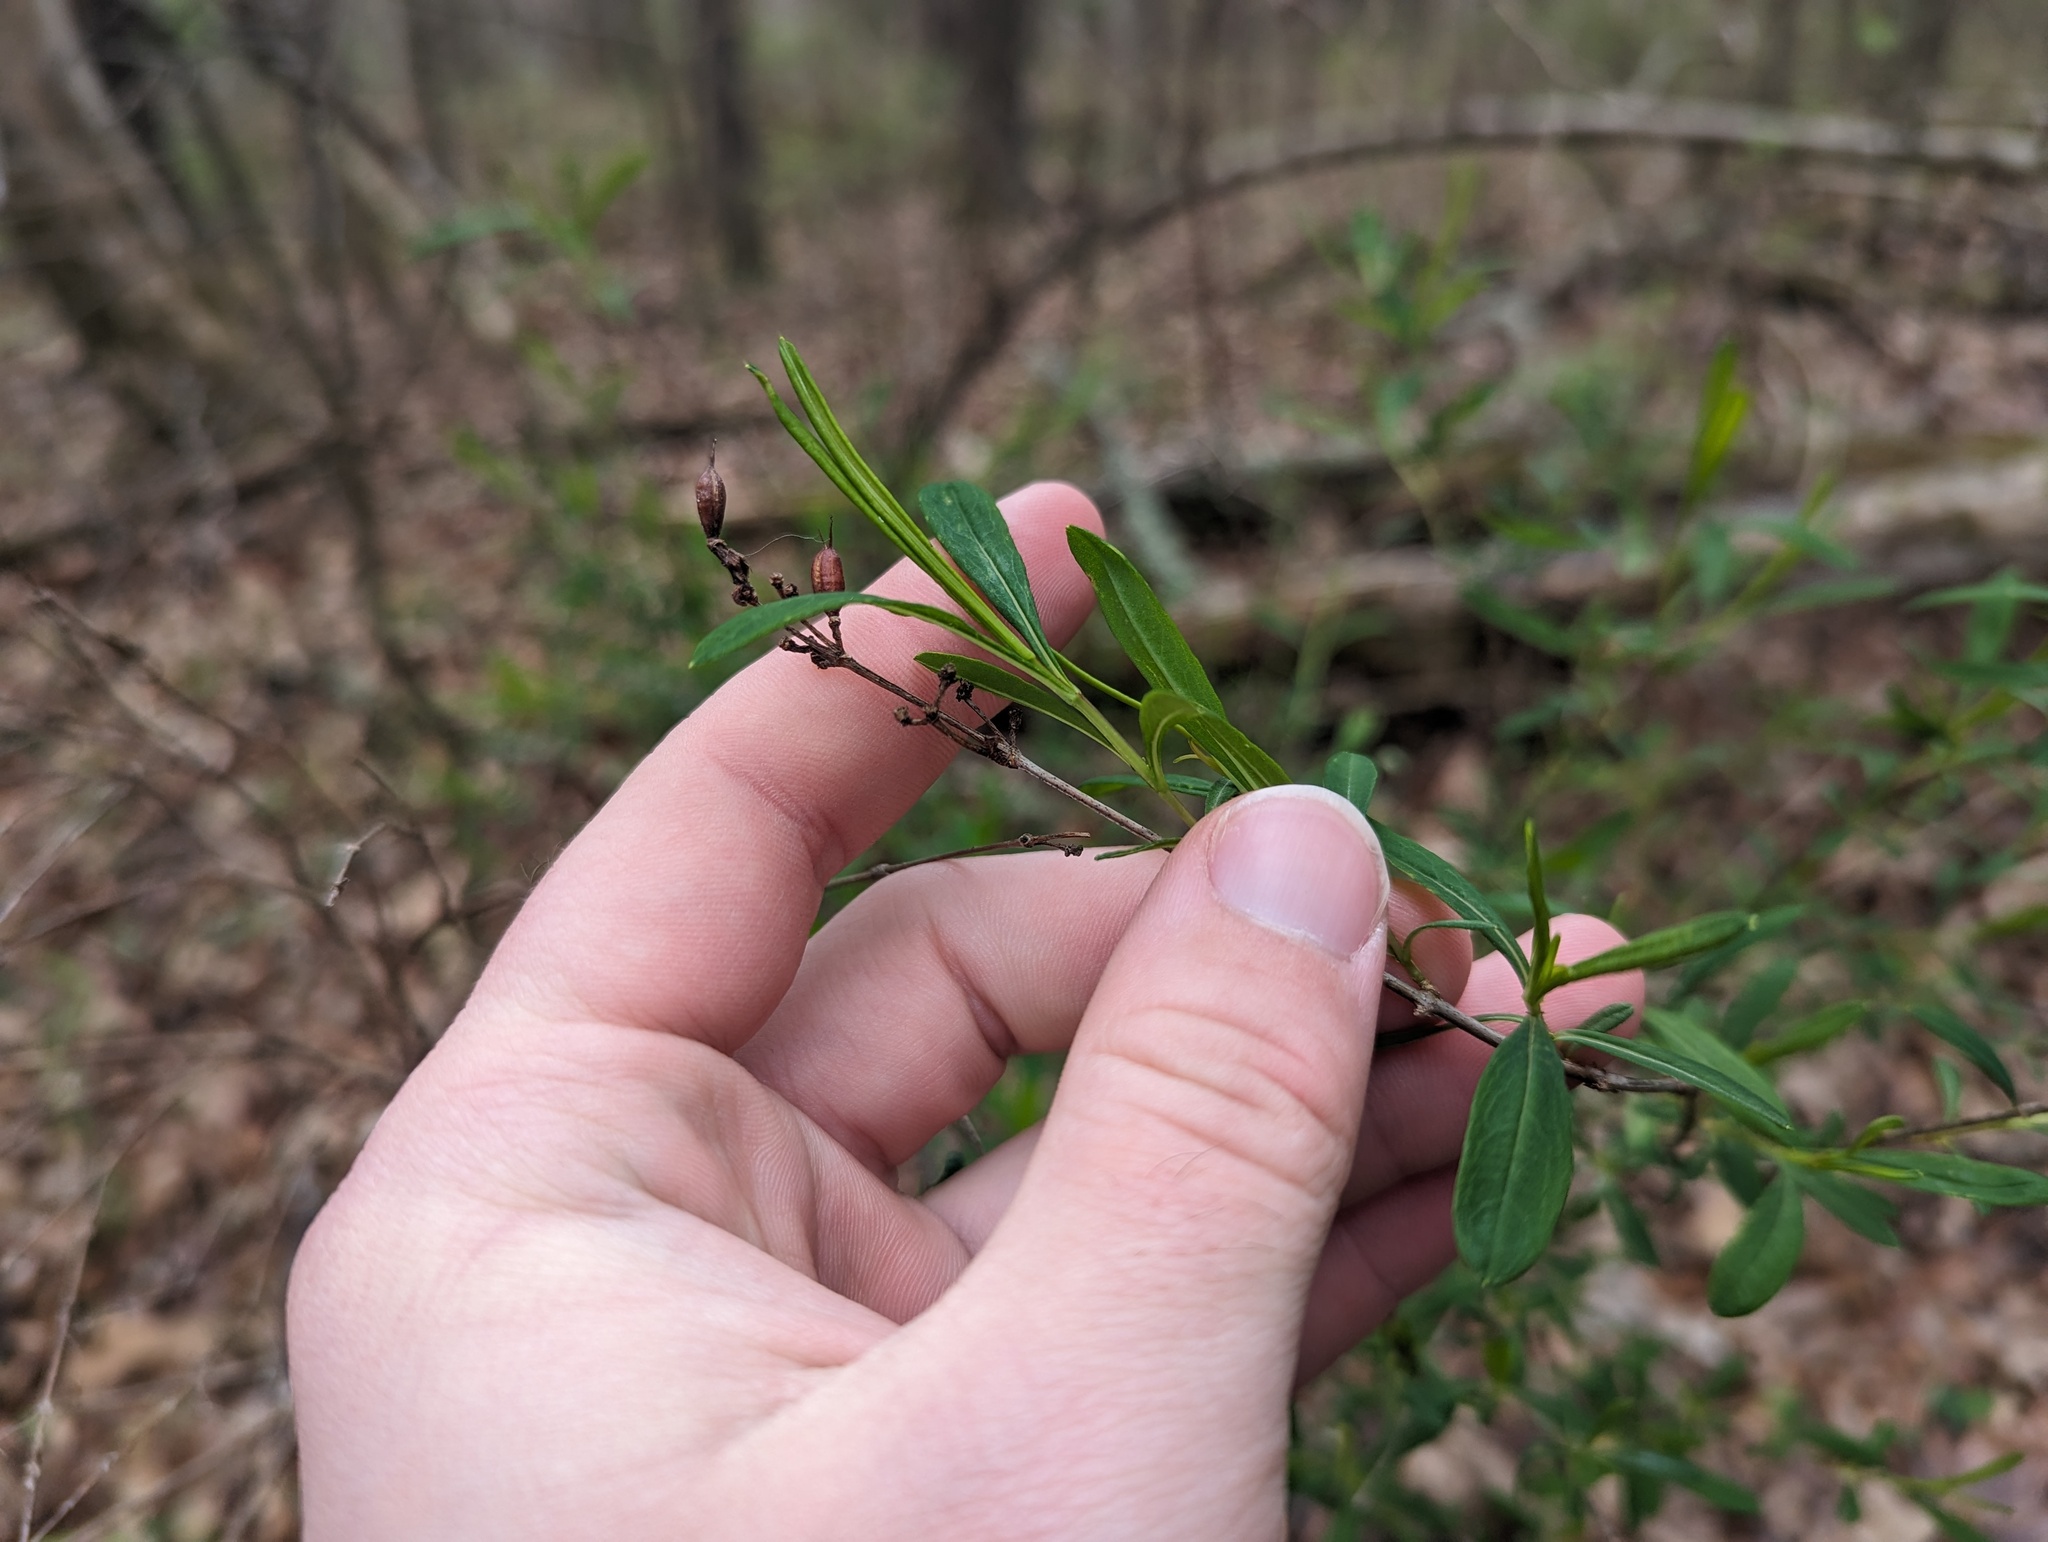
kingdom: Plantae
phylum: Tracheophyta
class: Magnoliopsida
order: Malpighiales
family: Hypericaceae
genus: Hypericum
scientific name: Hypericum prolificum
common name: Shrubby st. john's-wort
